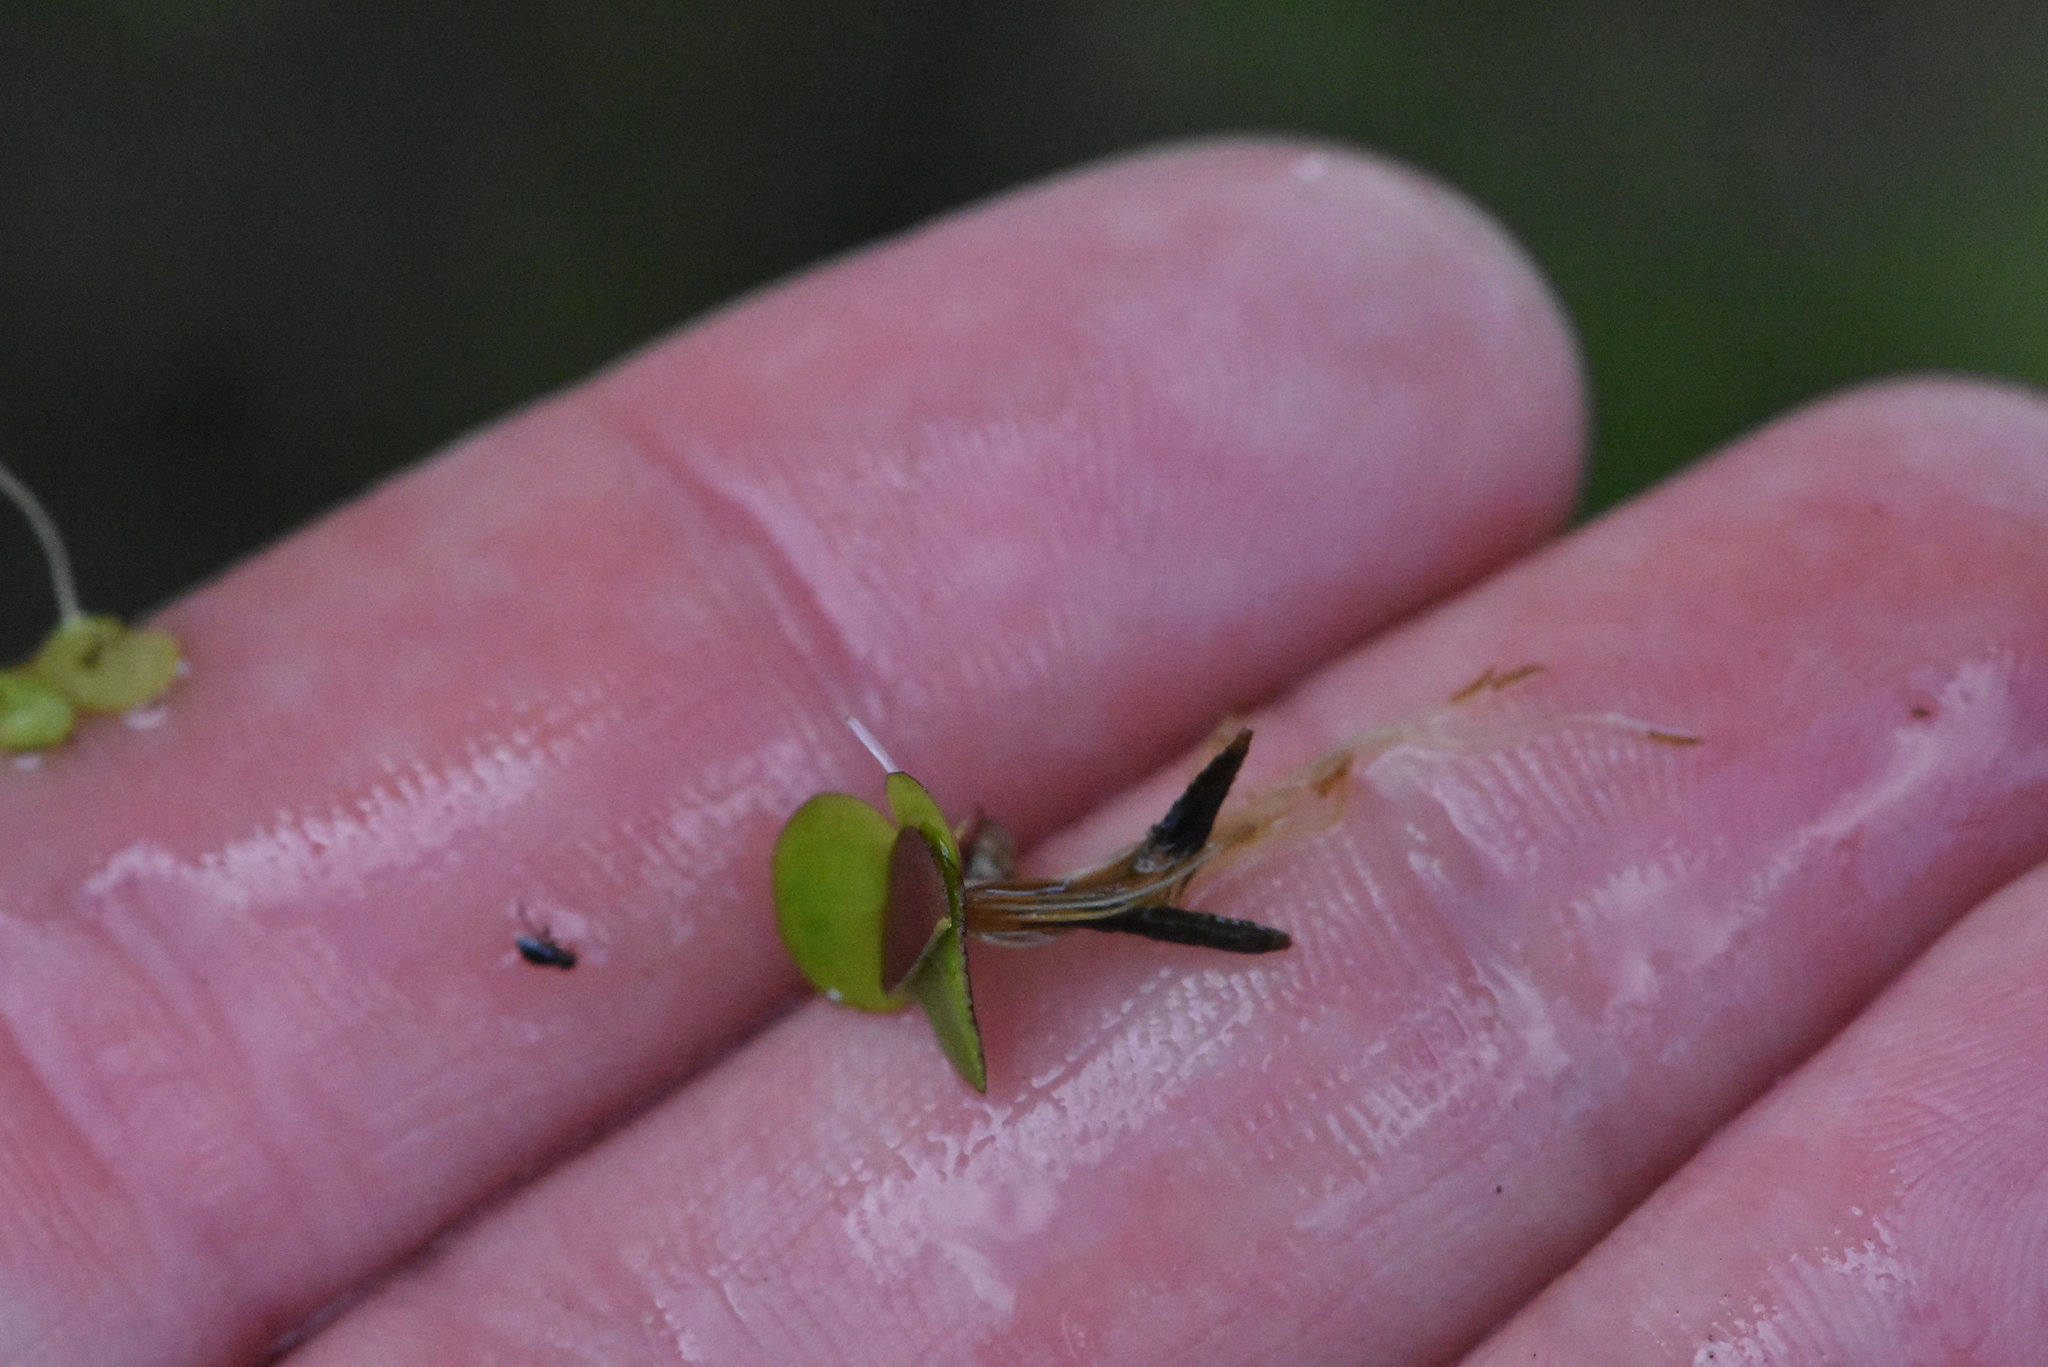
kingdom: Plantae
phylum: Tracheophyta
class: Liliopsida
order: Alismatales
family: Araceae
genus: Spirodela
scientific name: Spirodela polyrhiza
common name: Great duckweed
